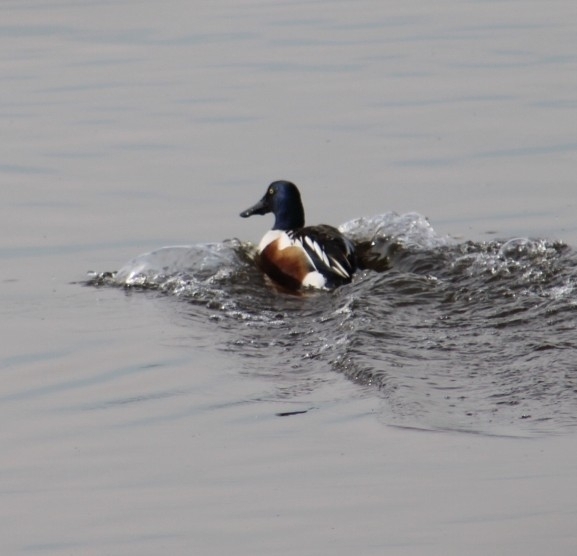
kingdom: Animalia
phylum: Chordata
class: Aves
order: Anseriformes
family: Anatidae
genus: Spatula
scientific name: Spatula clypeata
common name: Northern shoveler
